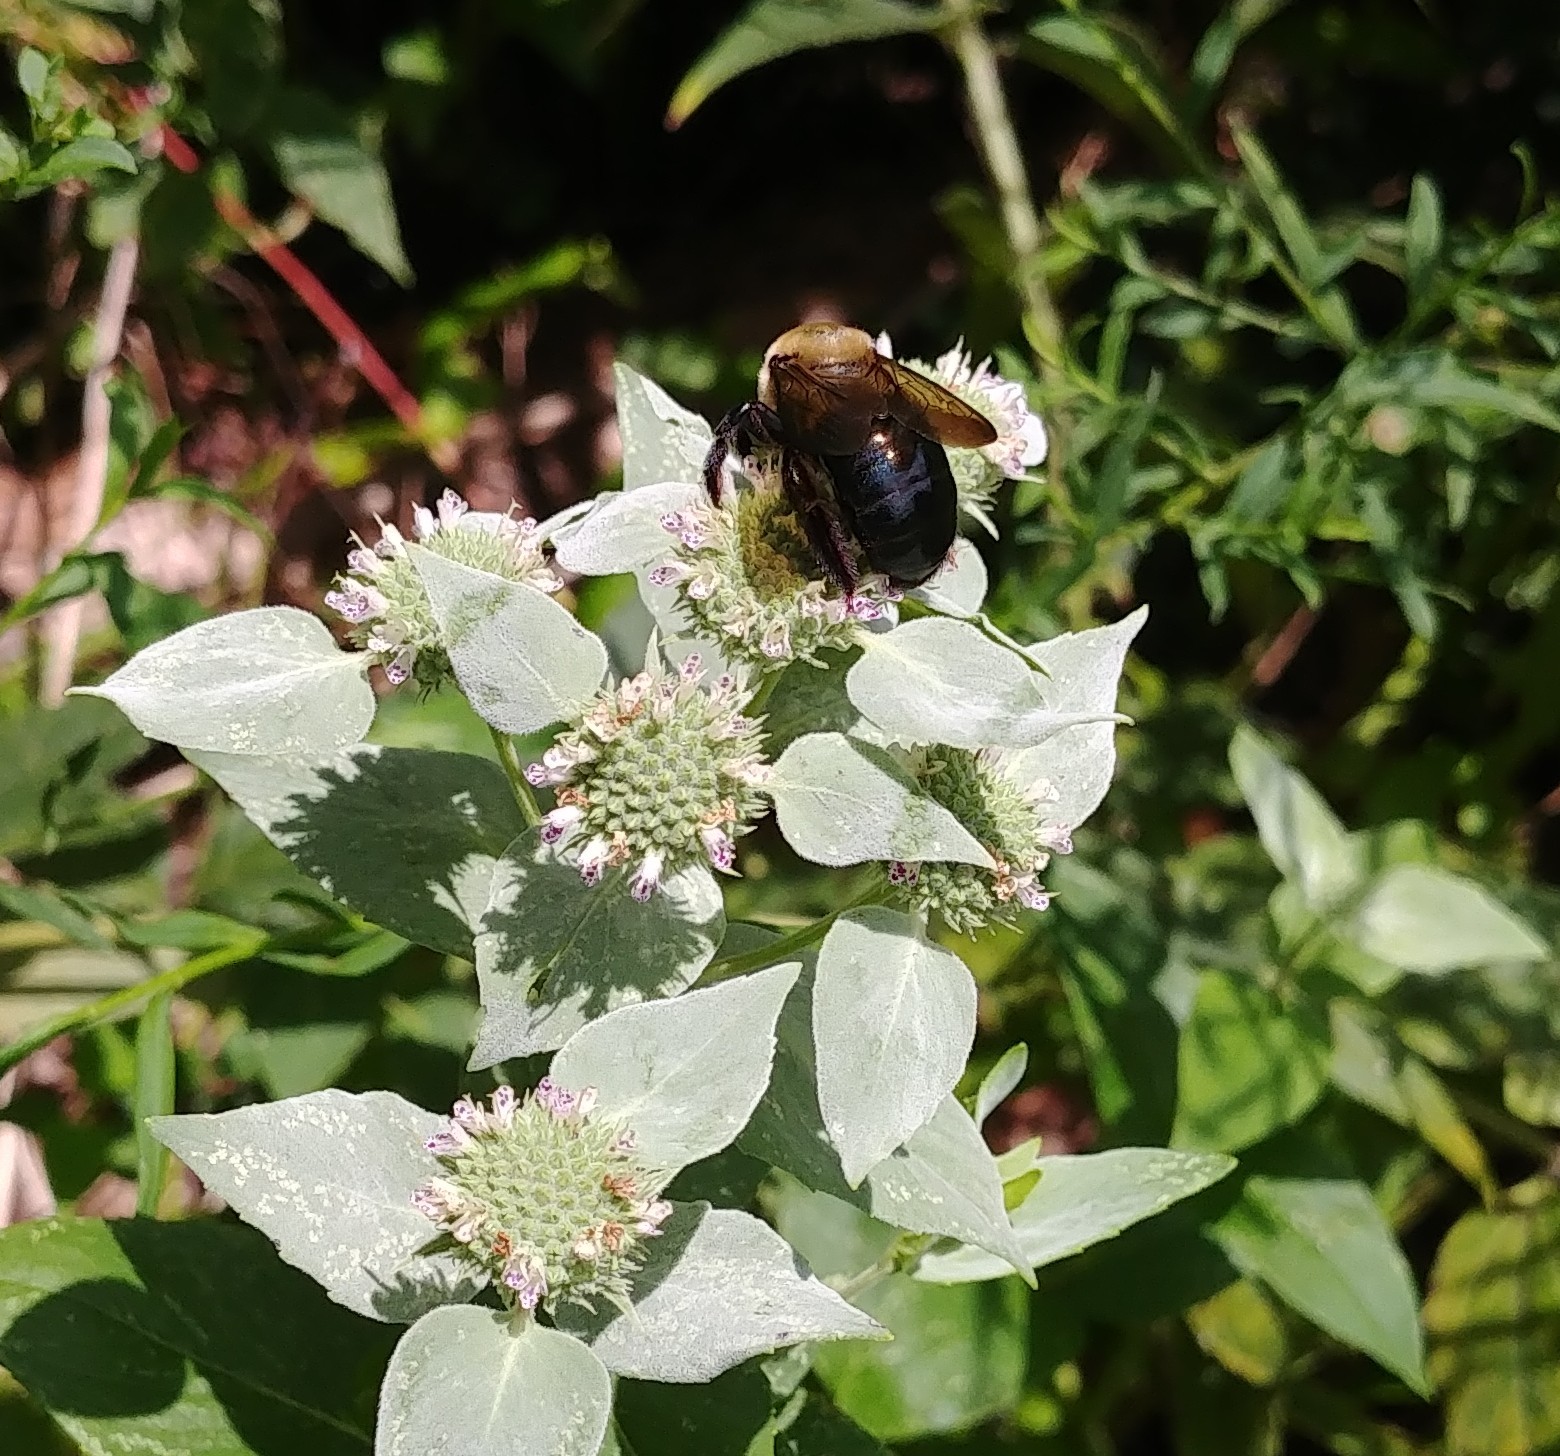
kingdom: Animalia
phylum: Arthropoda
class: Insecta
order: Hymenoptera
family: Apidae
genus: Xylocopa
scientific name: Xylocopa virginica
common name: Carpenter bee
